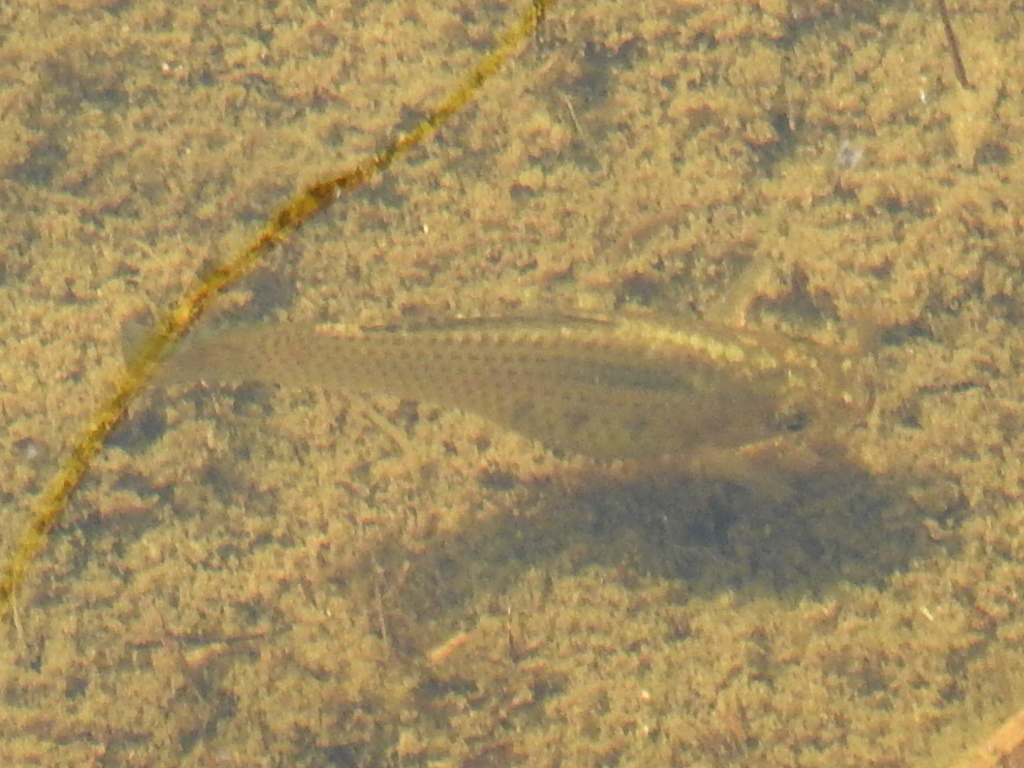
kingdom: Animalia
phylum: Chordata
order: Cyprinodontiformes
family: Poeciliidae
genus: Poecilia
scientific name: Poecilia latipinna
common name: Sailfin molly
